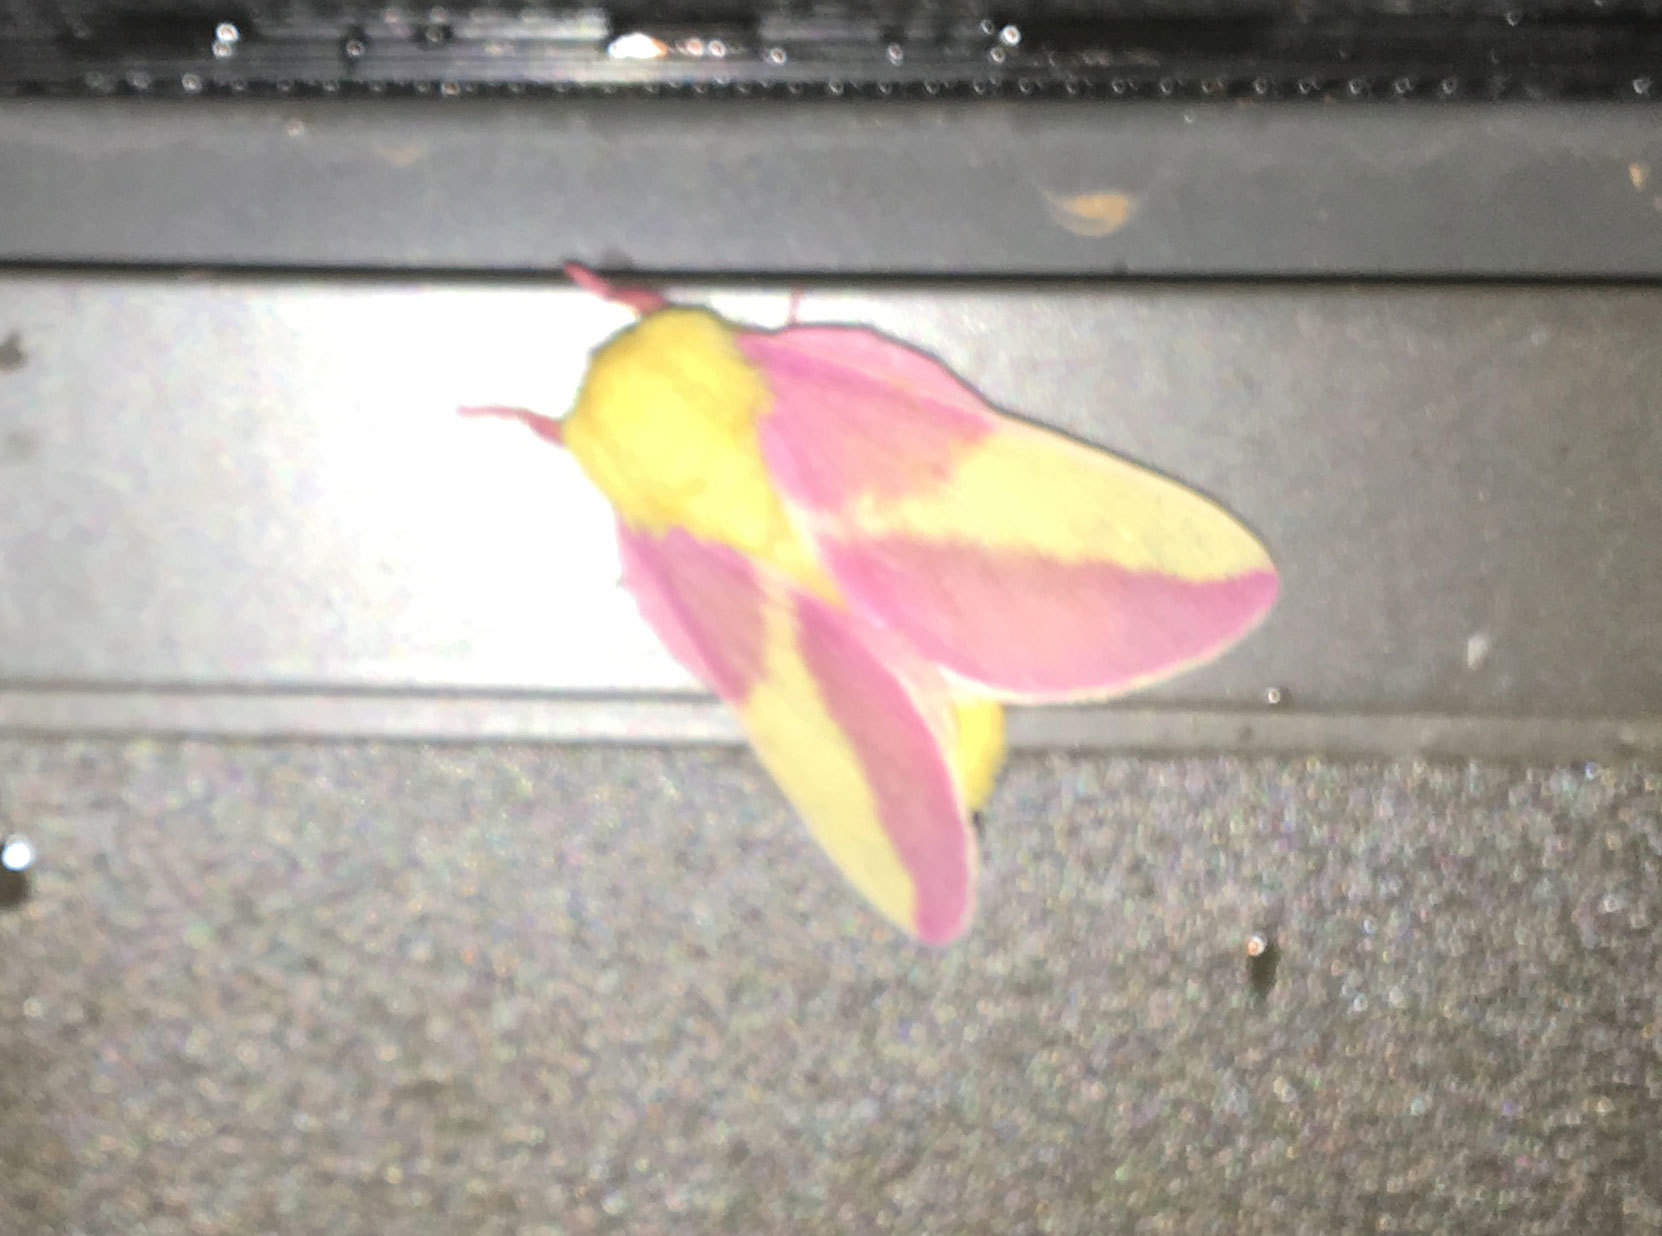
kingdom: Animalia
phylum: Arthropoda
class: Insecta
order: Lepidoptera
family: Saturniidae
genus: Dryocampa
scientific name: Dryocampa rubicunda
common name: Rosy maple moth
